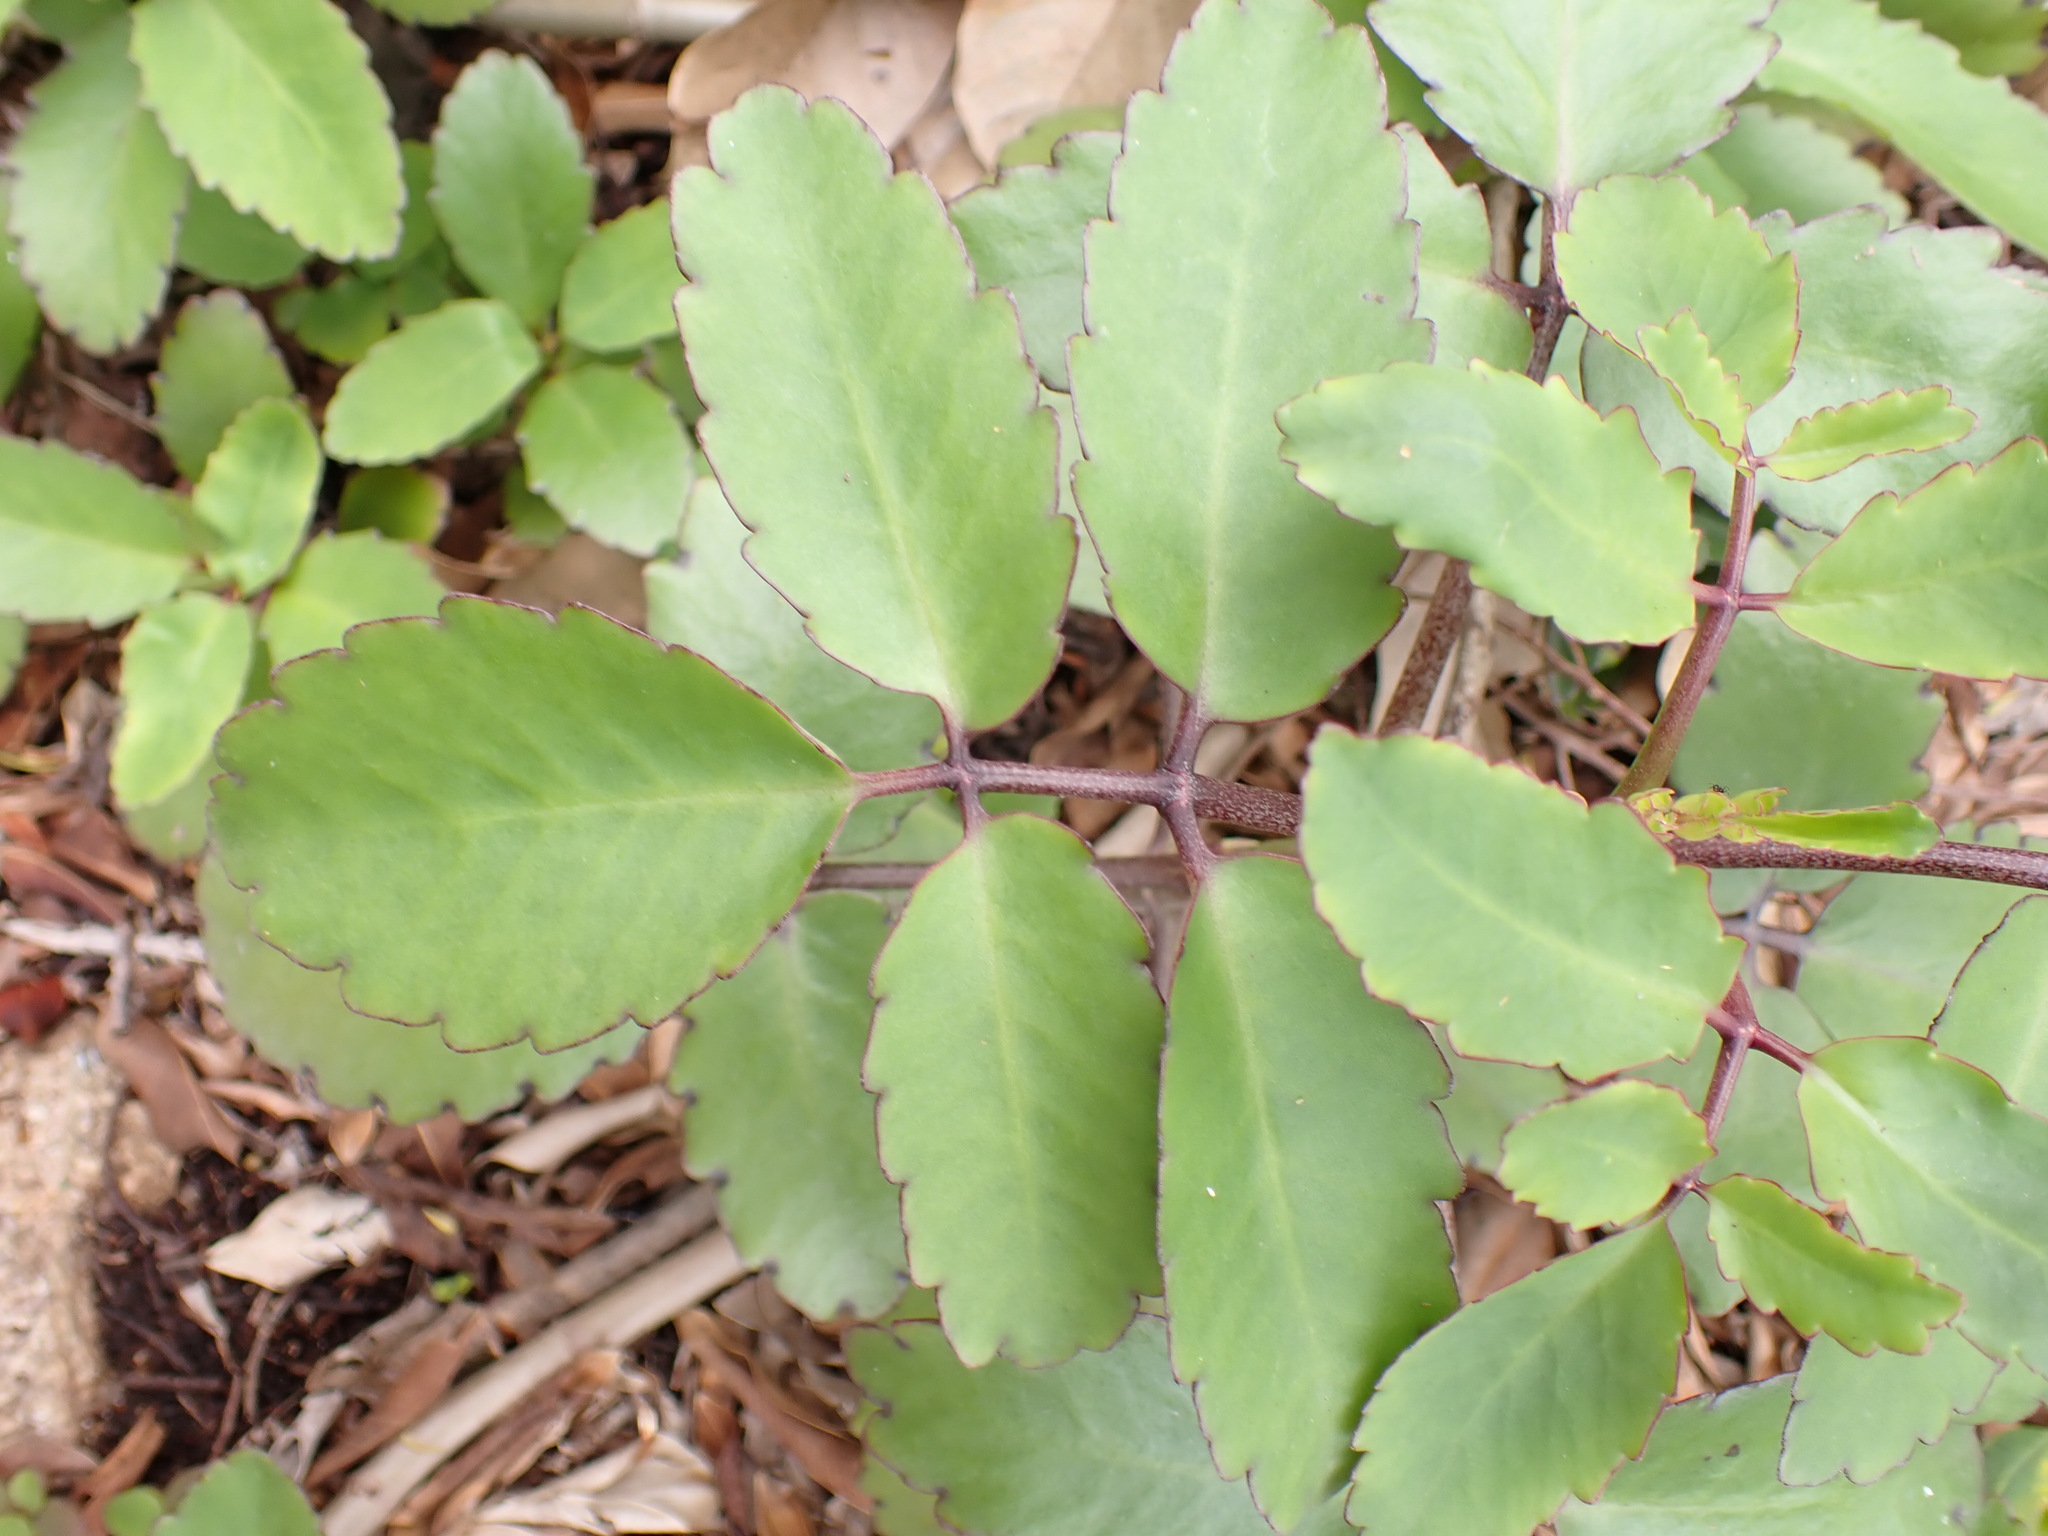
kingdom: Plantae
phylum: Tracheophyta
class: Magnoliopsida
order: Saxifragales
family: Crassulaceae
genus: Kalanchoe
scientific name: Kalanchoe pinnata
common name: Cathedral bells
